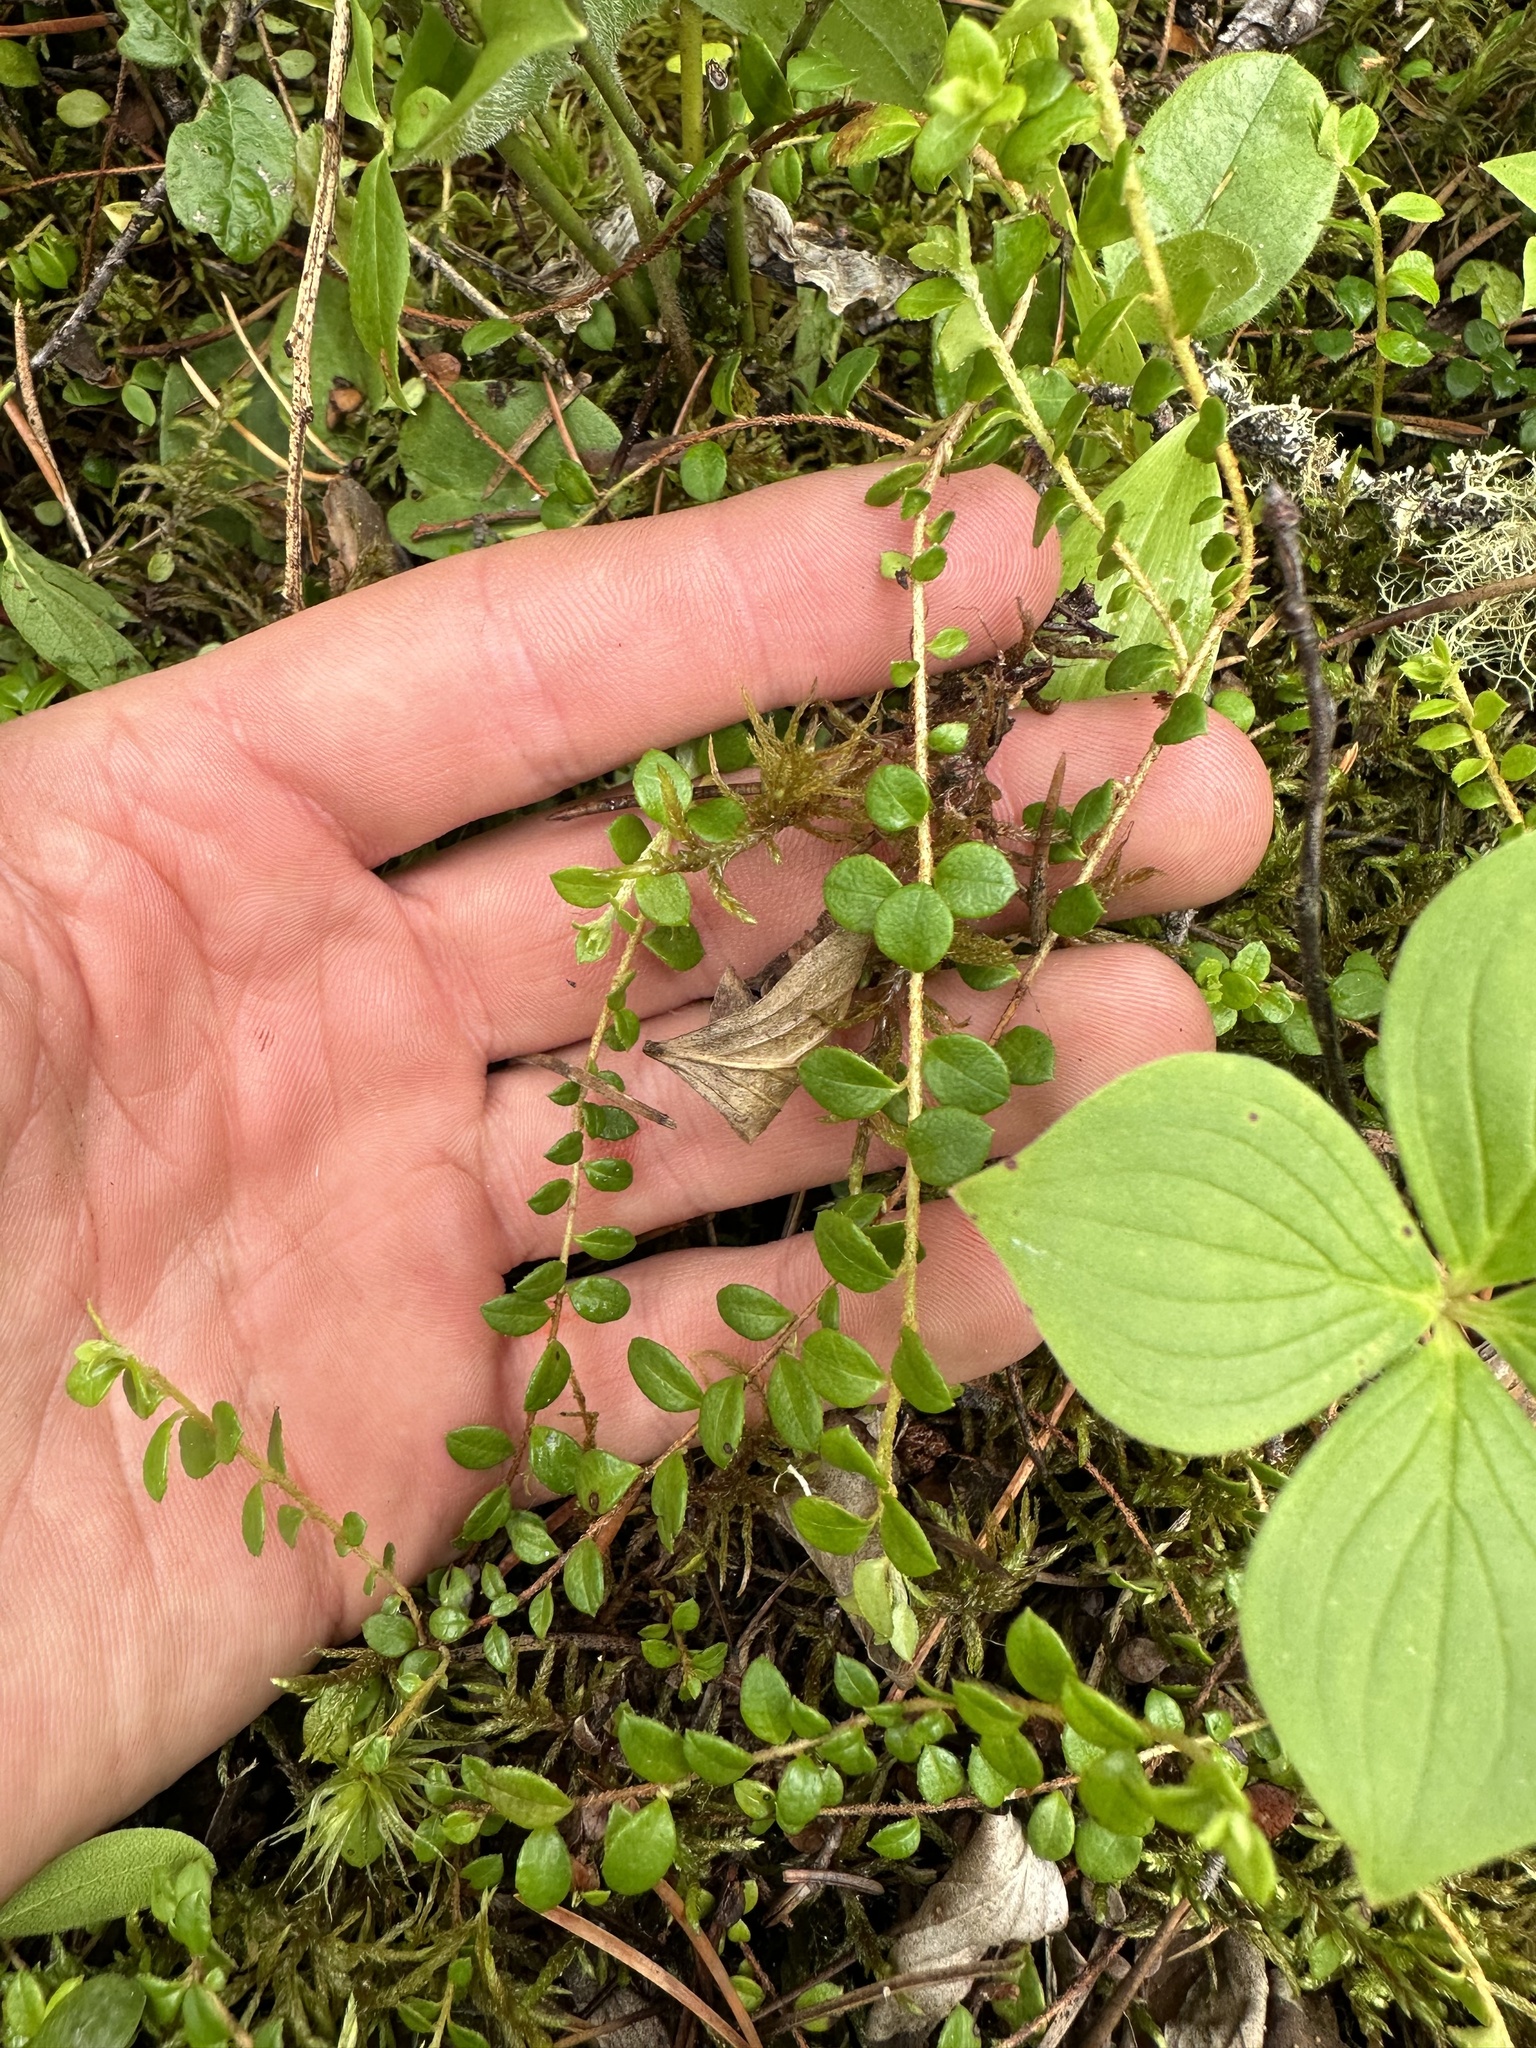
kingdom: Plantae
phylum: Tracheophyta
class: Magnoliopsida
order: Ericales
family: Ericaceae
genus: Gaultheria
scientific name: Gaultheria hispidula
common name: Cancer wintergreen
